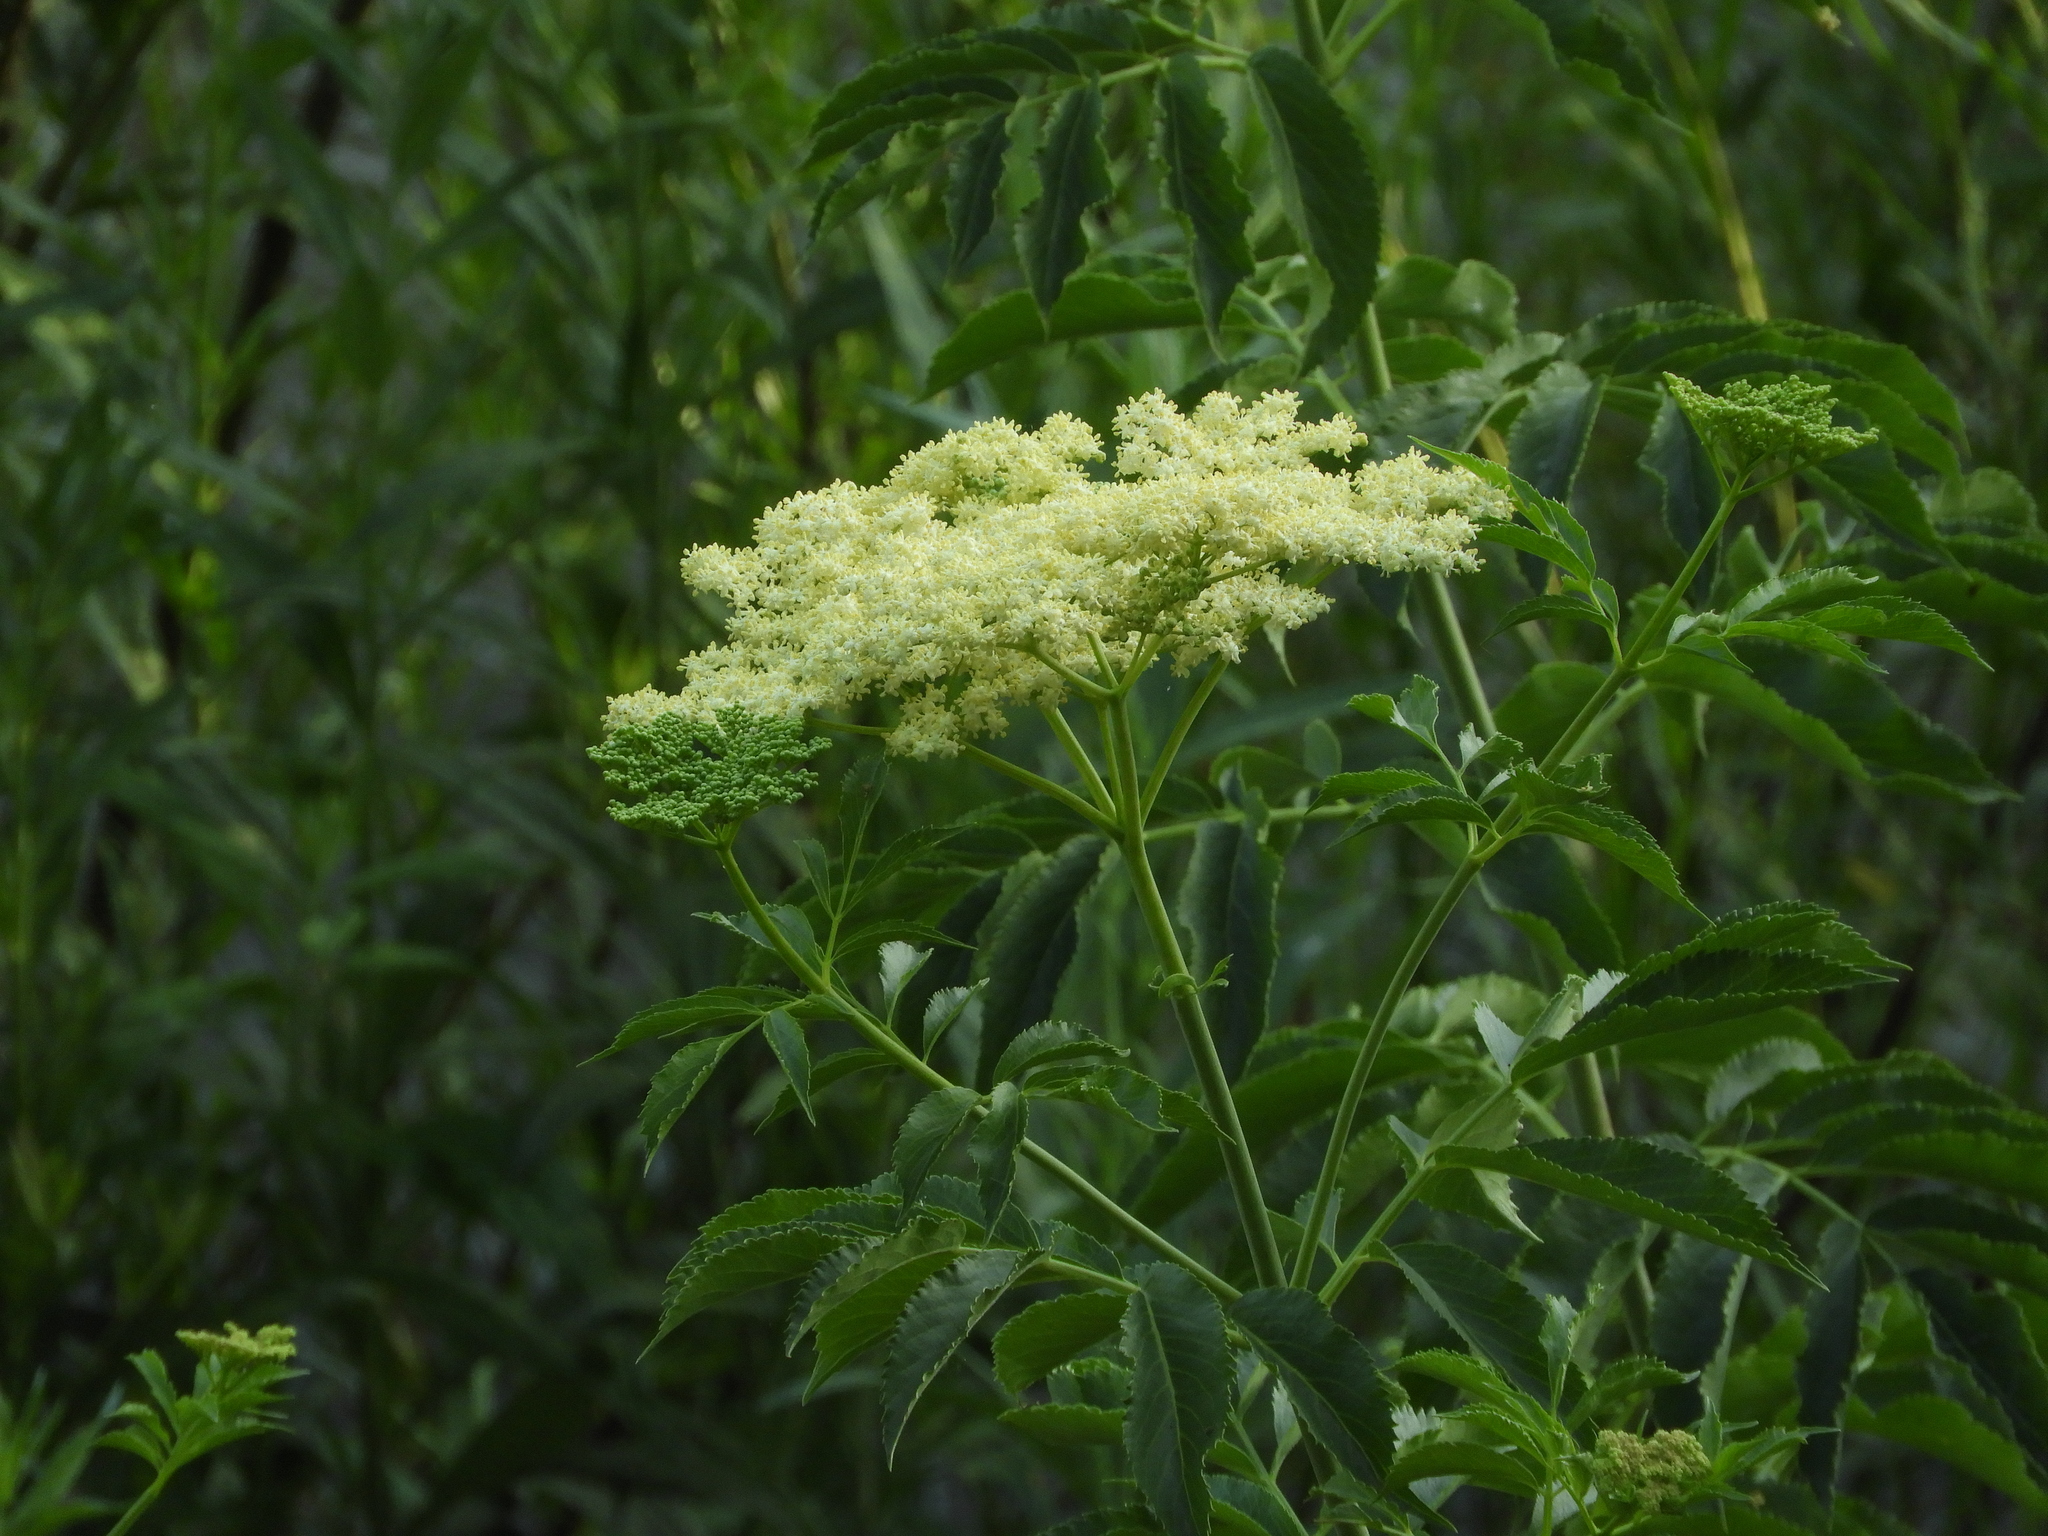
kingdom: Plantae
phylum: Tracheophyta
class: Magnoliopsida
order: Dipsacales
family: Viburnaceae
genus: Sambucus
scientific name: Sambucus cerulea
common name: Blue elder
